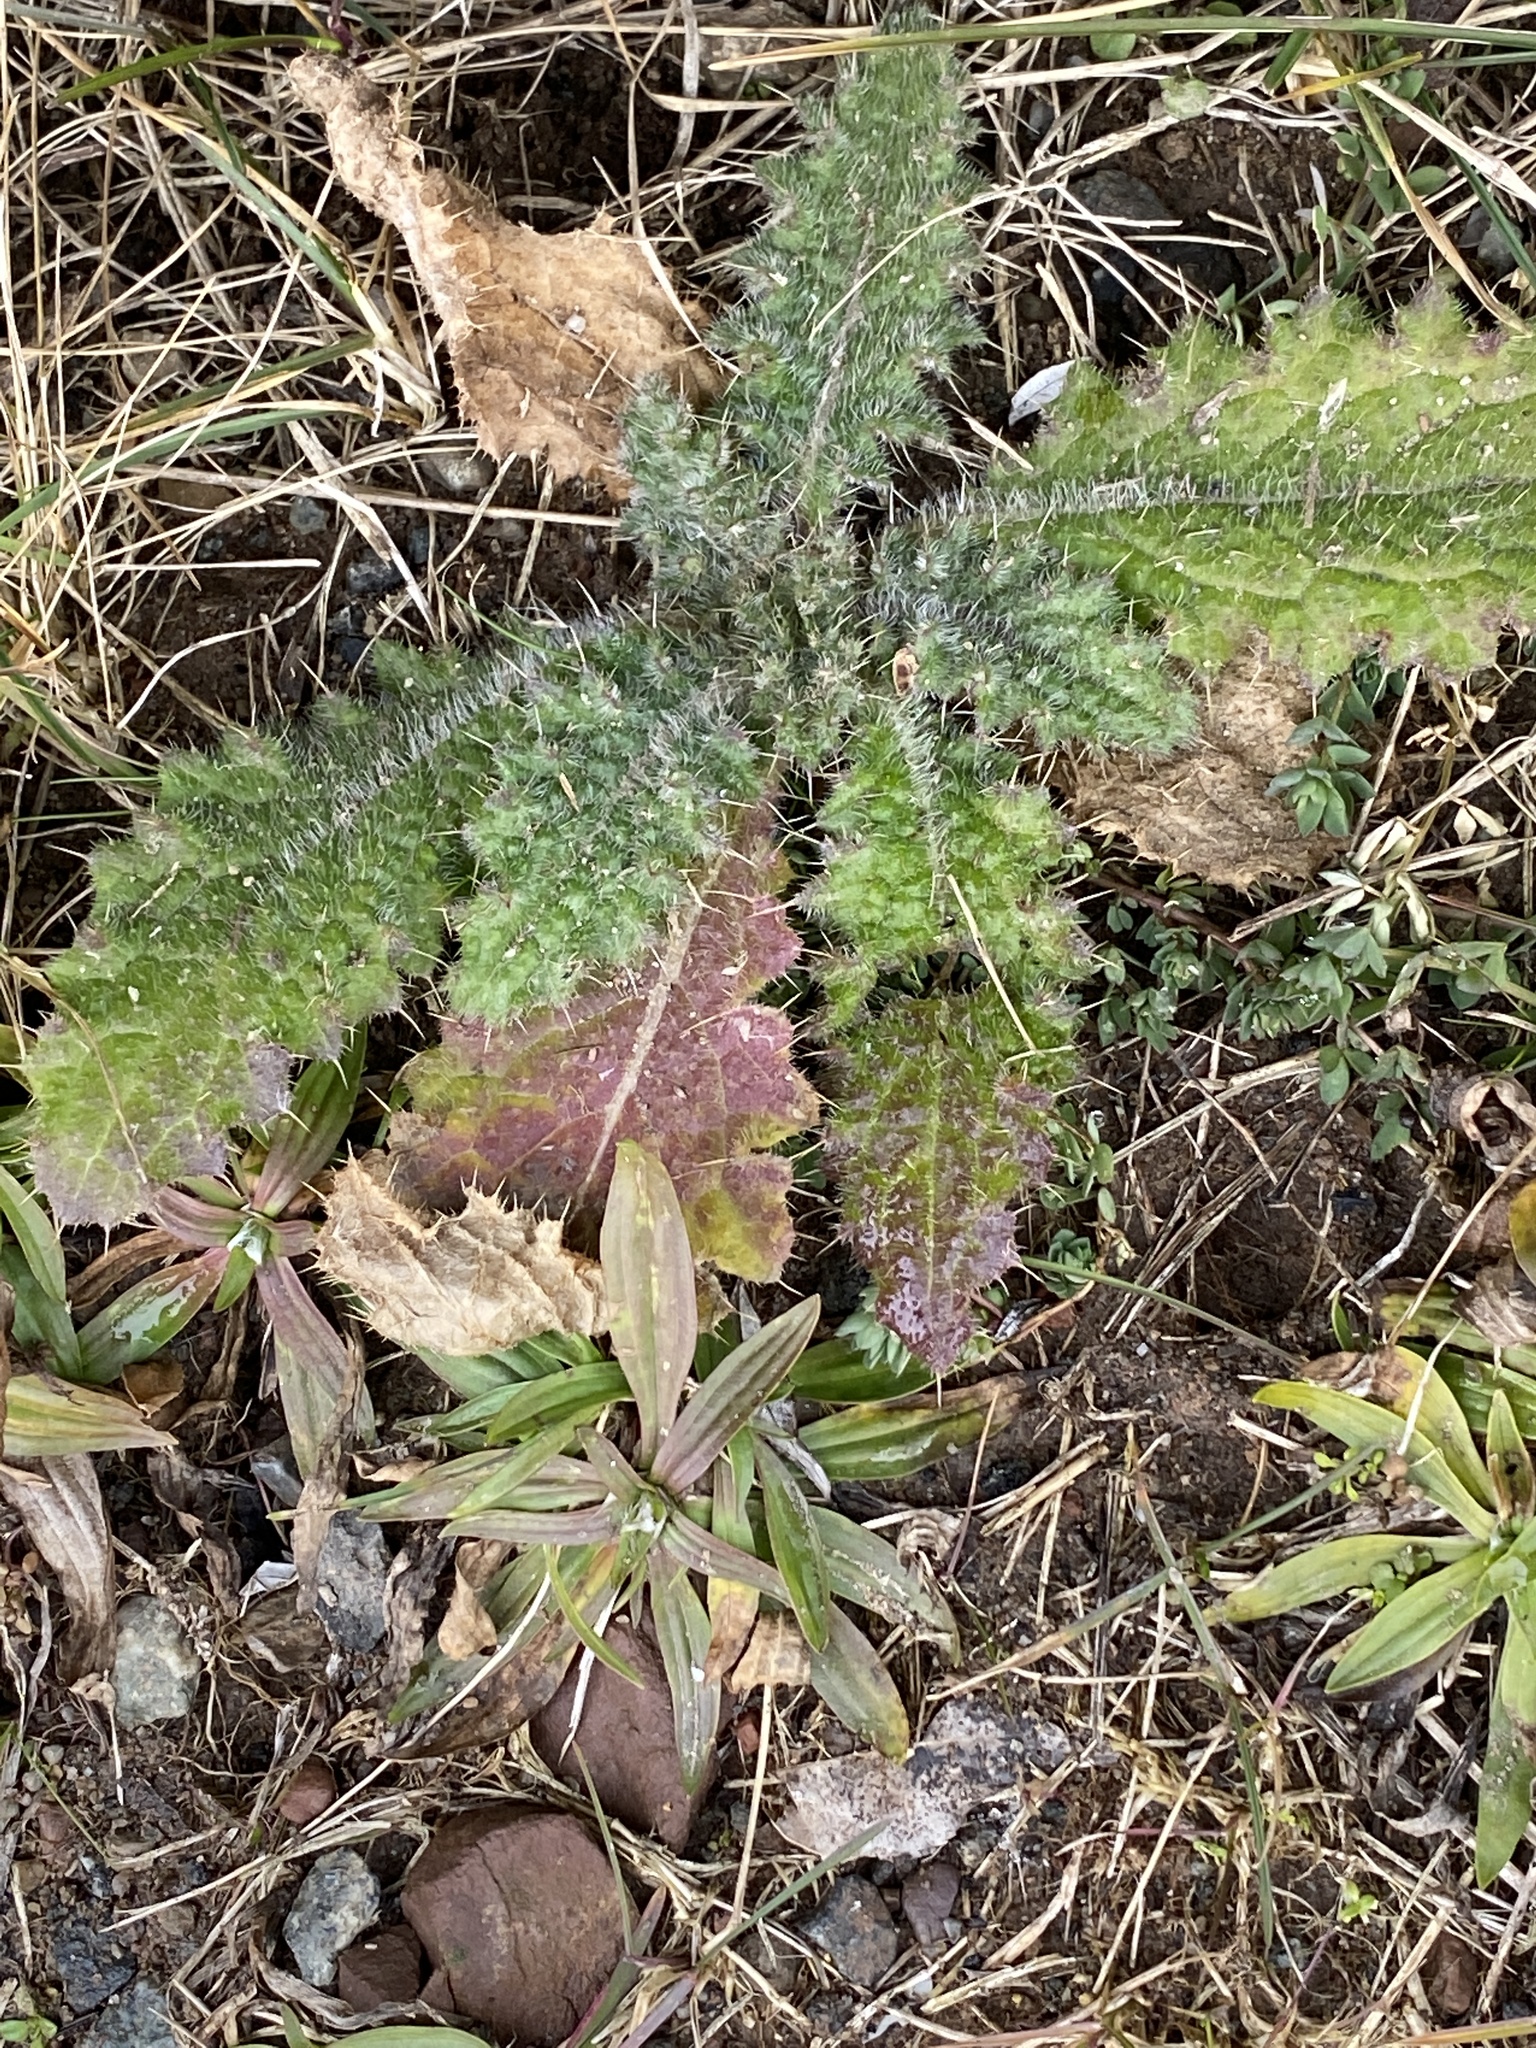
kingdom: Plantae
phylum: Tracheophyta
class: Magnoliopsida
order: Asterales
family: Asteraceae
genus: Cirsium
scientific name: Cirsium vulgare
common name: Bull thistle
